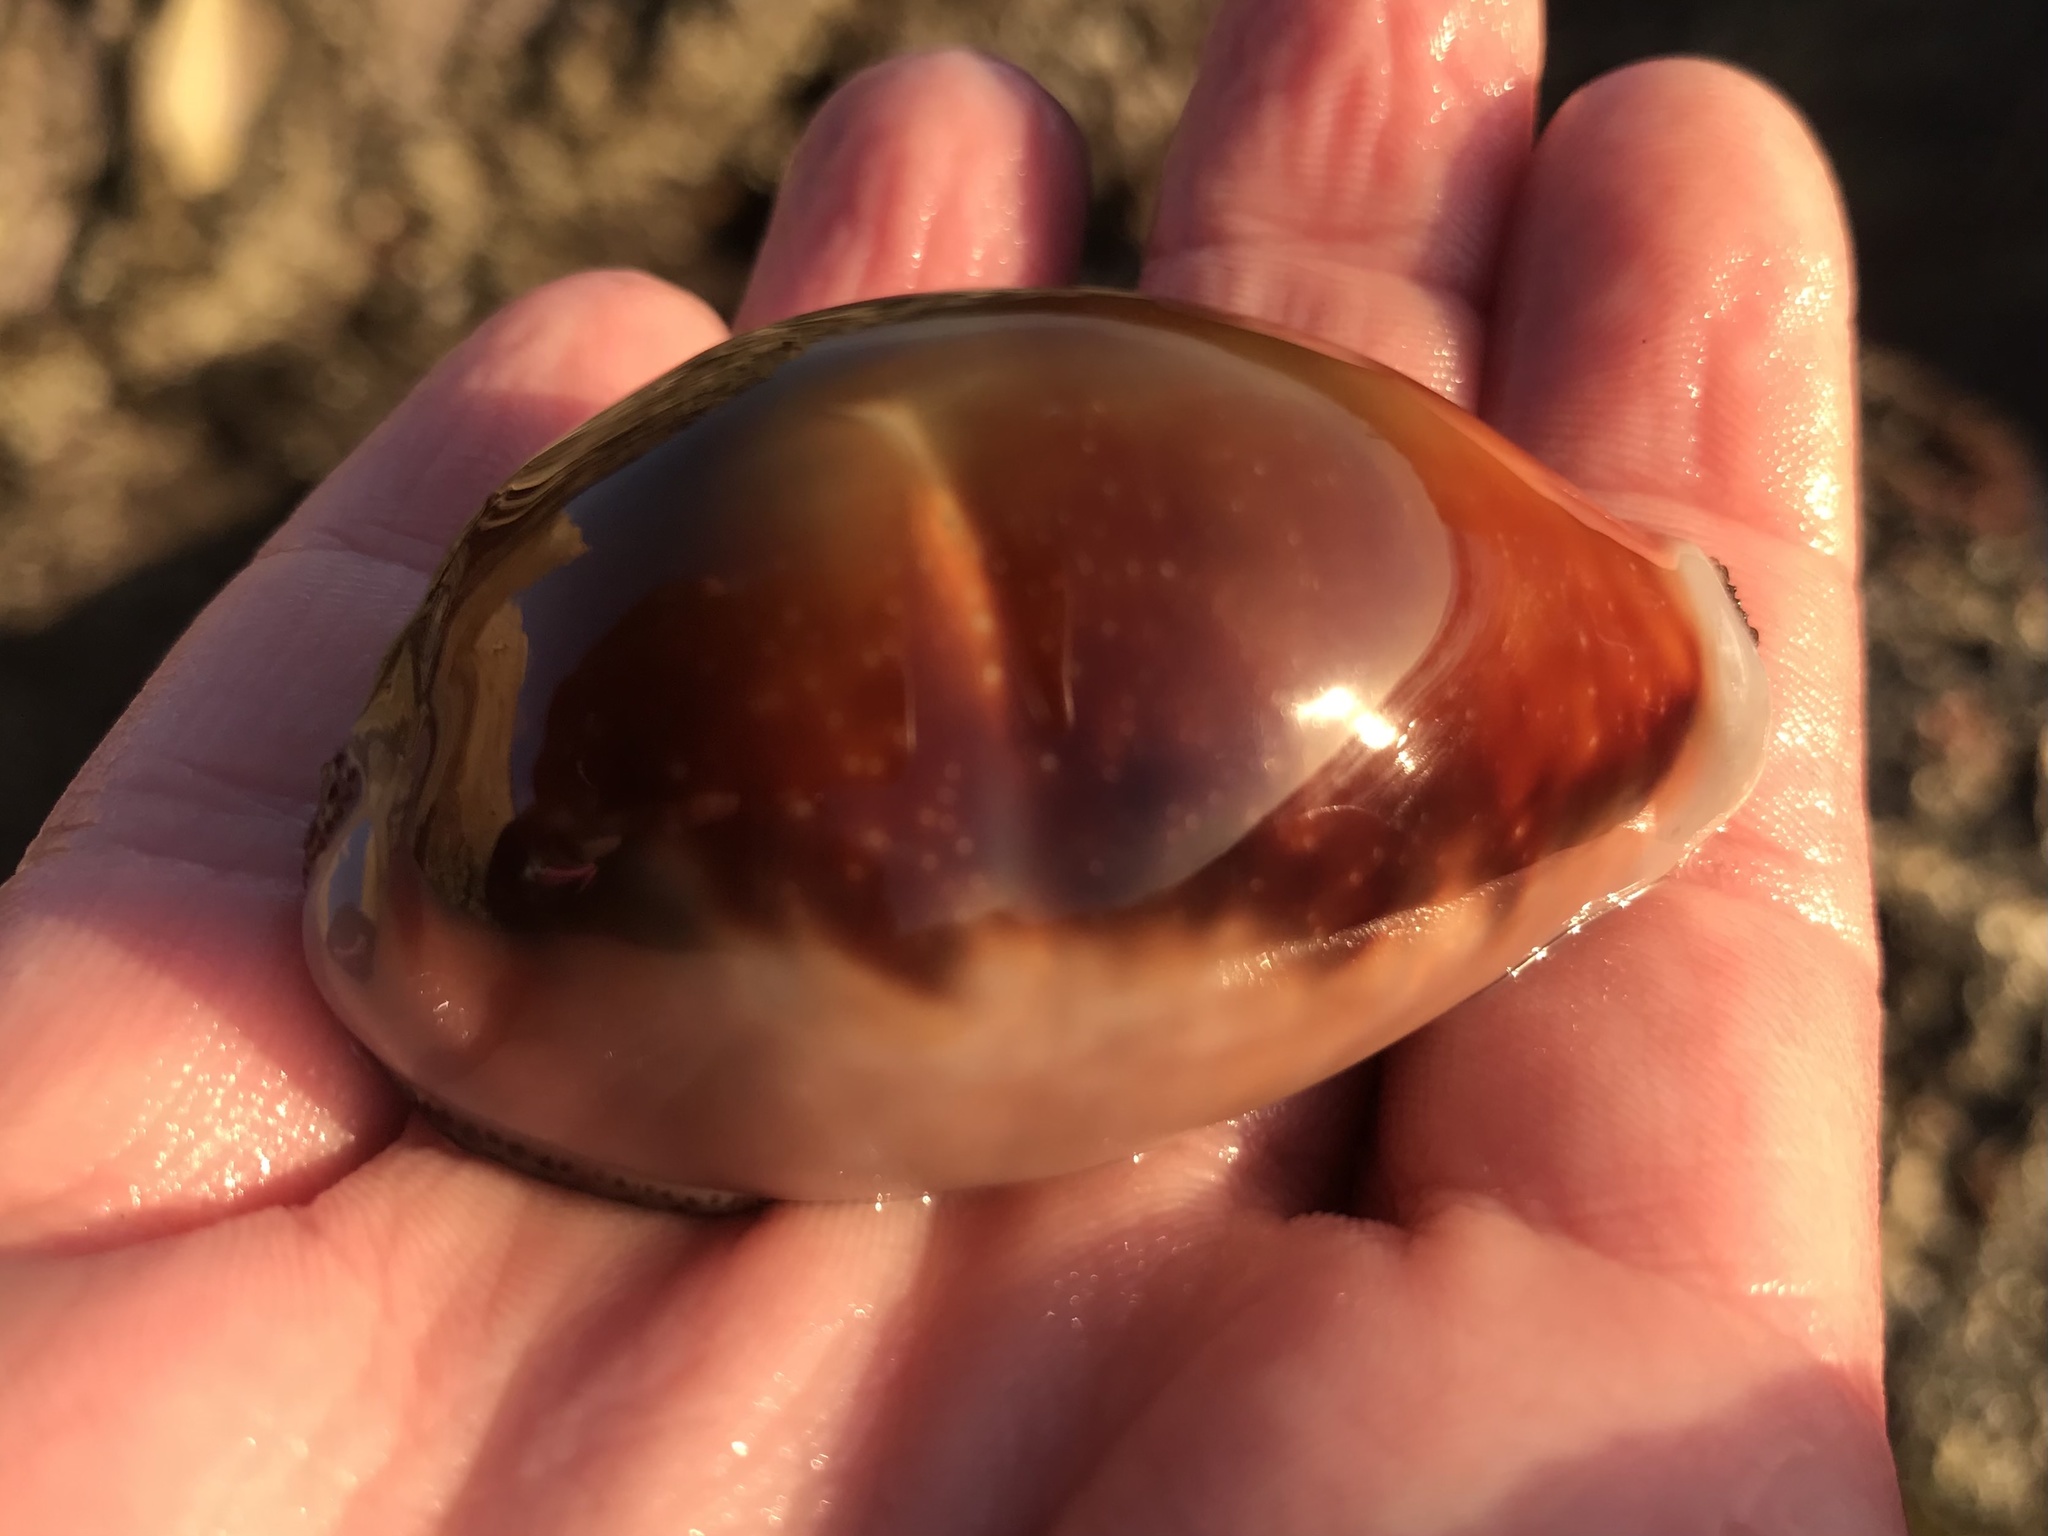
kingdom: Animalia
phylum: Mollusca
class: Gastropoda
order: Littorinimorpha
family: Cypraeidae
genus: Neobernaya
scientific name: Neobernaya spadicea
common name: Chestnut cowrie
